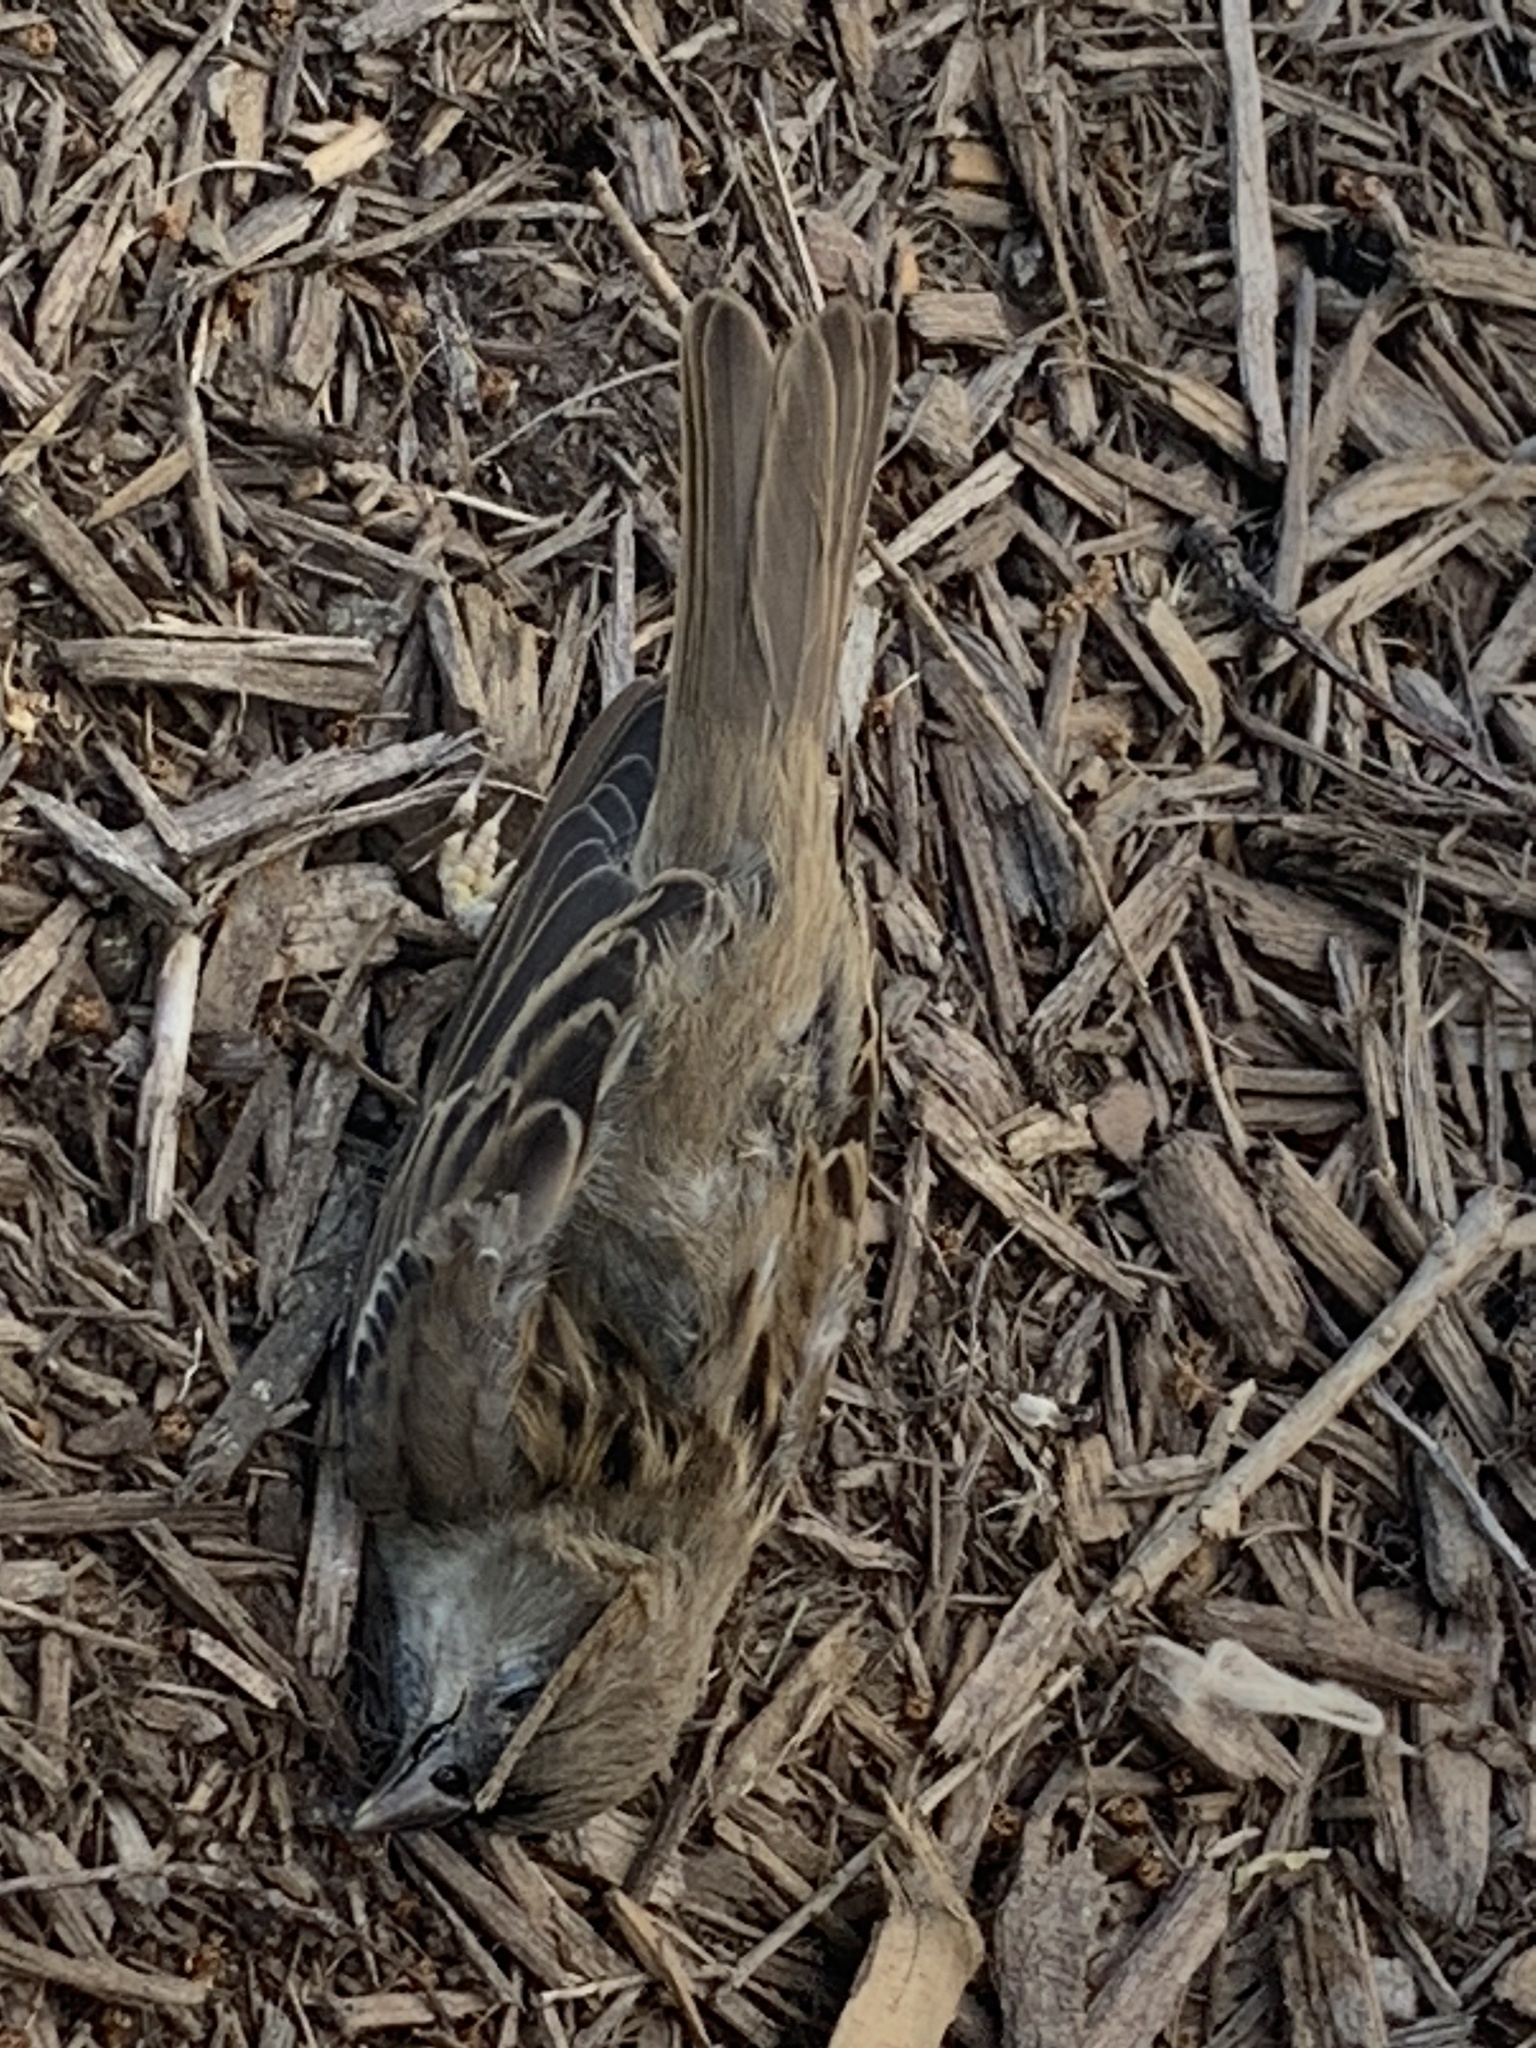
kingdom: Animalia
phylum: Chordata
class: Aves
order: Passeriformes
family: Passeridae
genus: Passer
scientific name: Passer domesticus
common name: House sparrow
